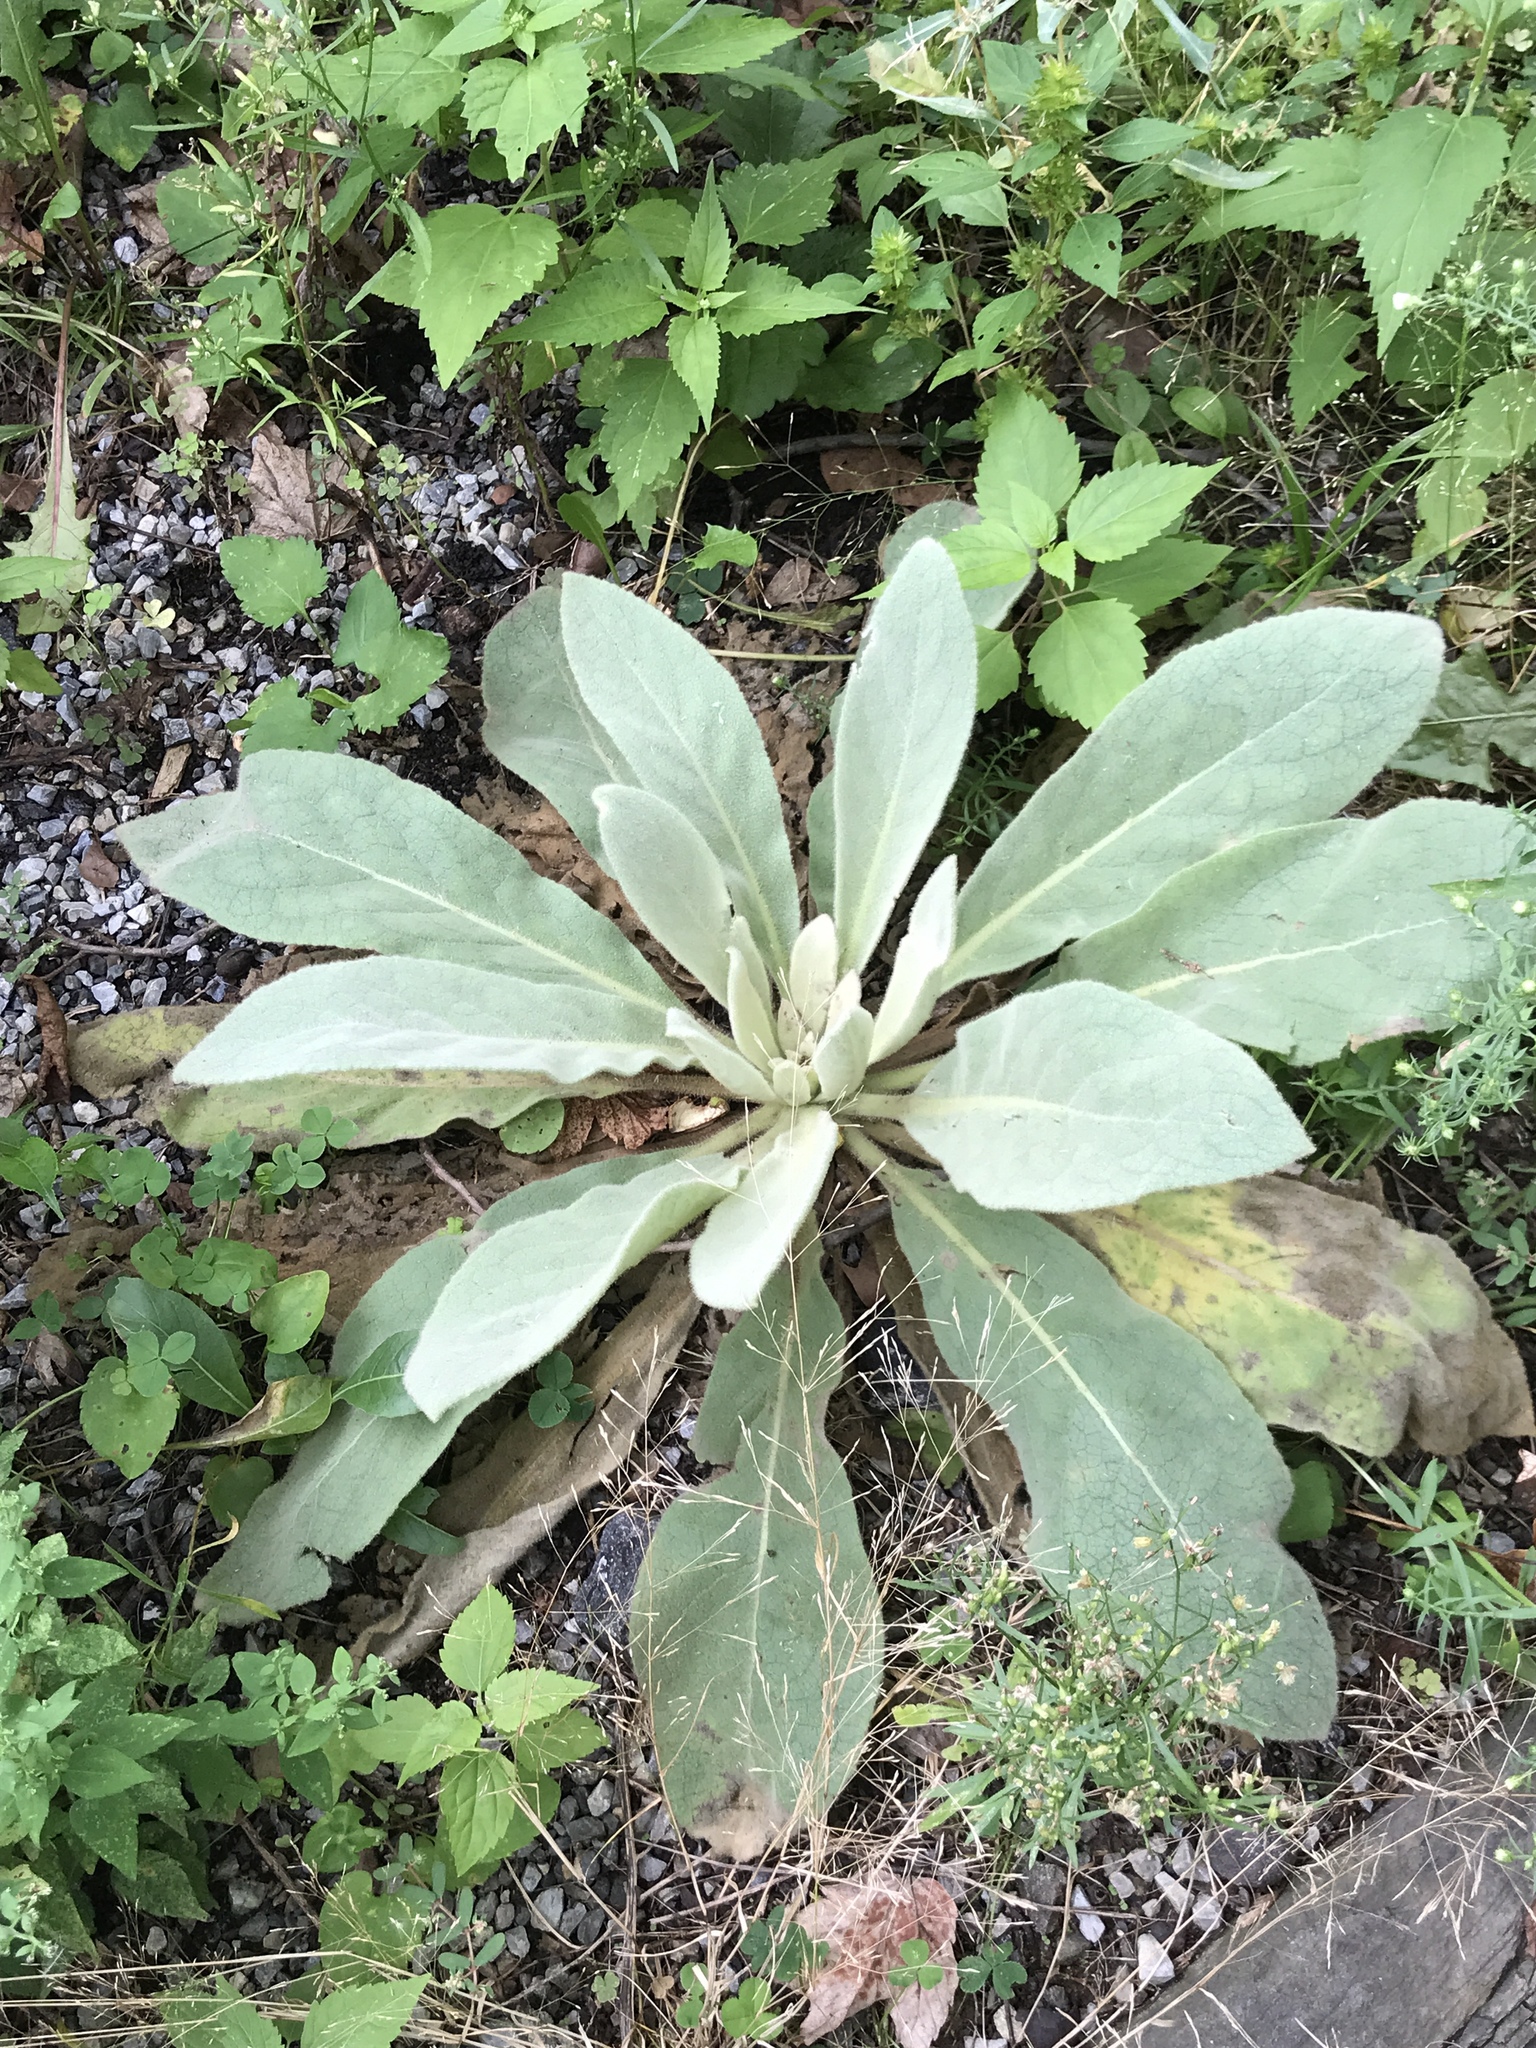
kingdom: Plantae
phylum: Tracheophyta
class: Magnoliopsida
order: Lamiales
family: Scrophulariaceae
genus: Verbascum
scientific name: Verbascum thapsus
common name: Common mullein
